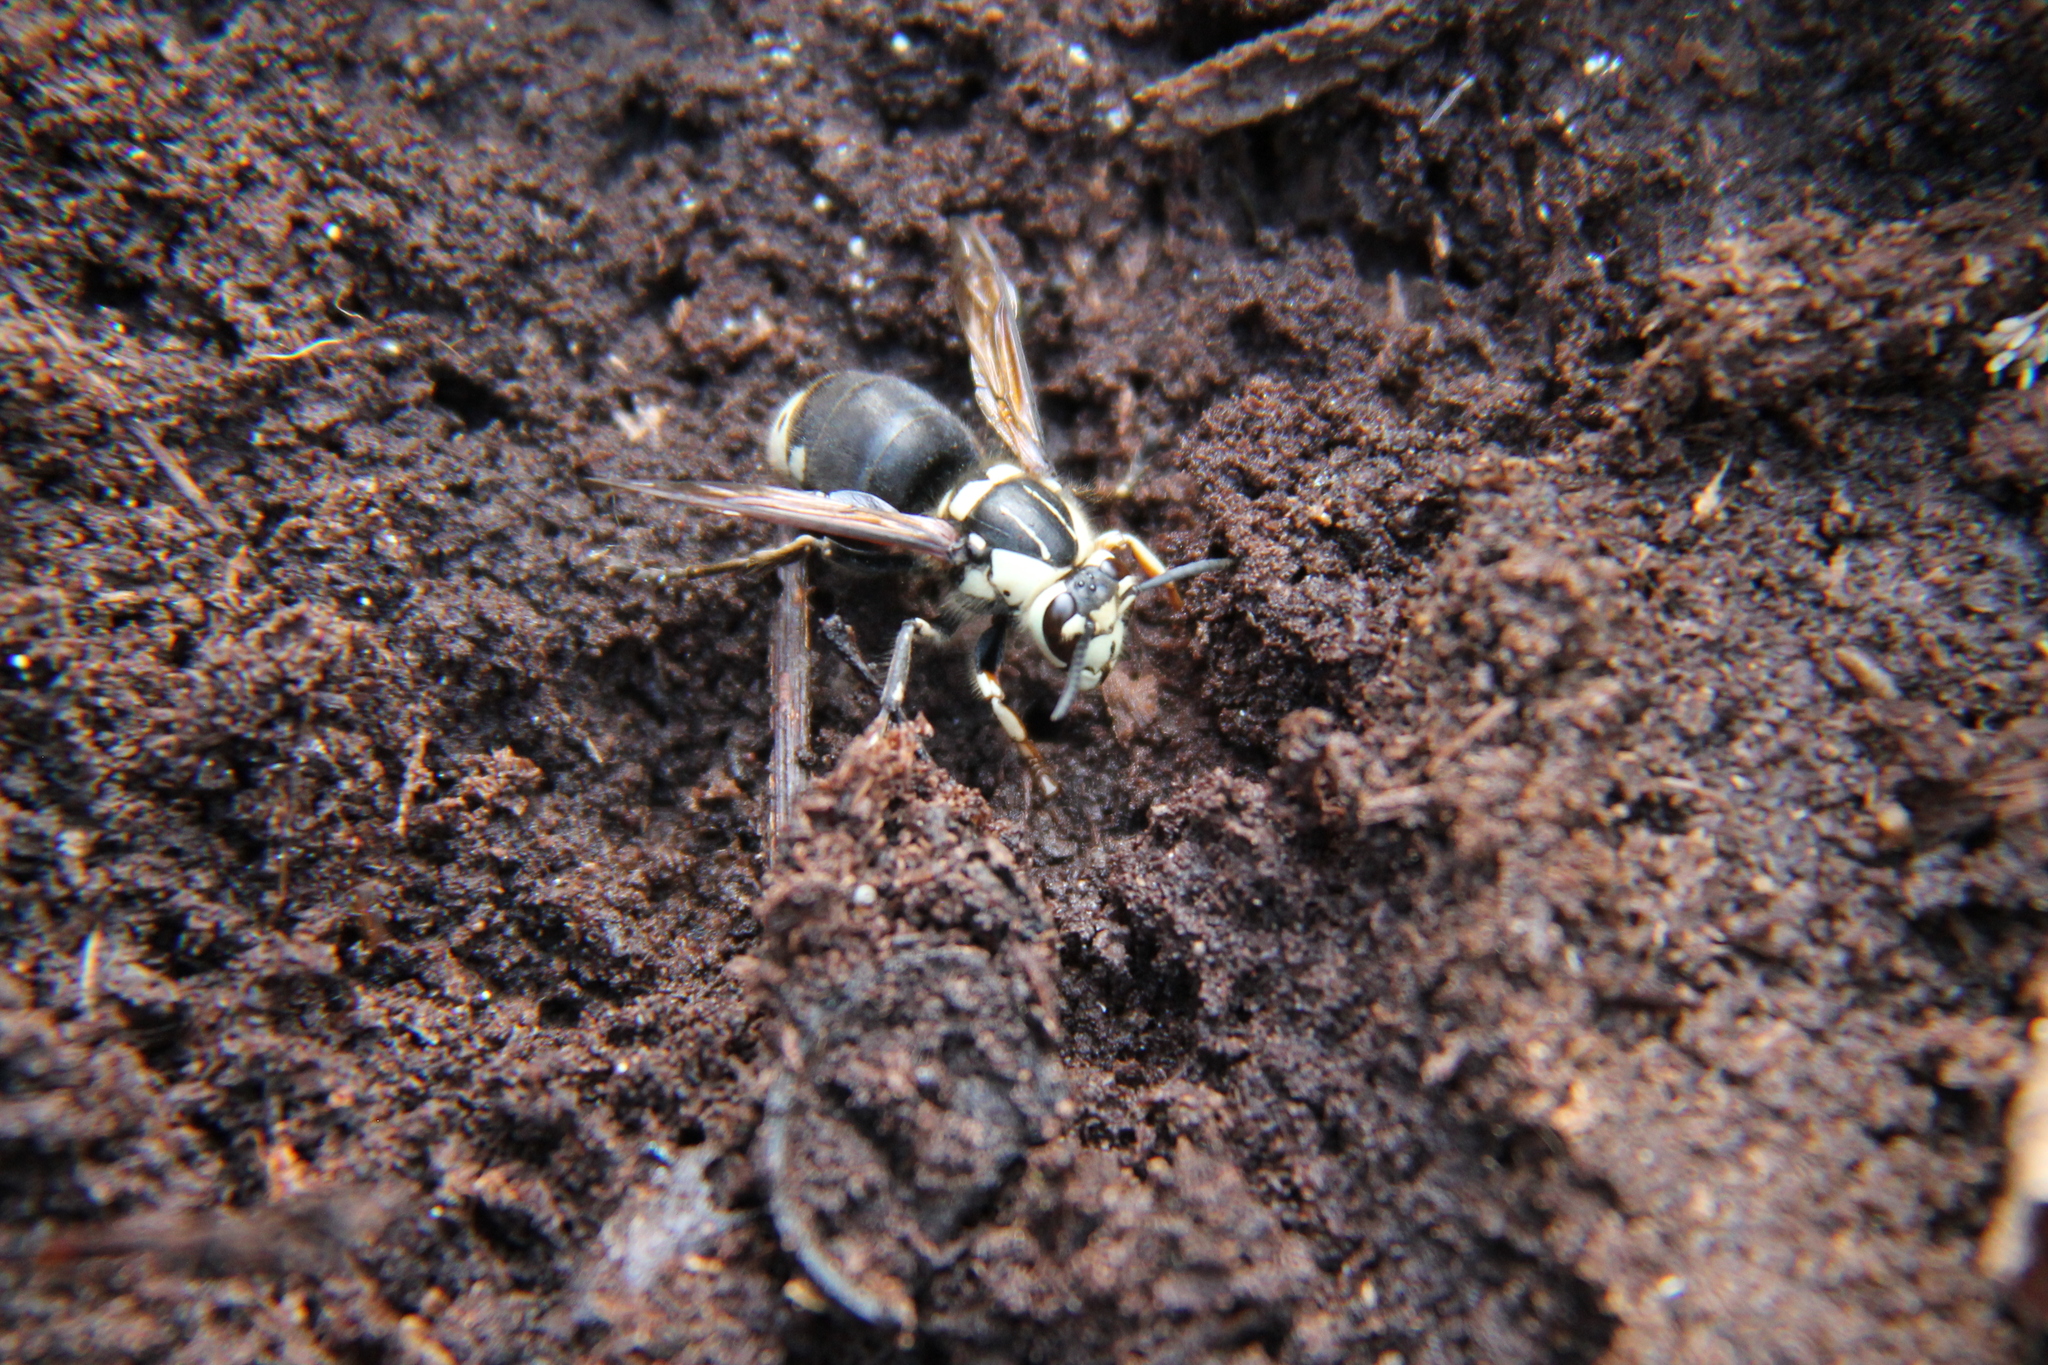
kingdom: Animalia
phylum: Arthropoda
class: Insecta
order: Hymenoptera
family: Vespidae
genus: Dolichovespula
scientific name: Dolichovespula maculata
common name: Bald-faced hornet
